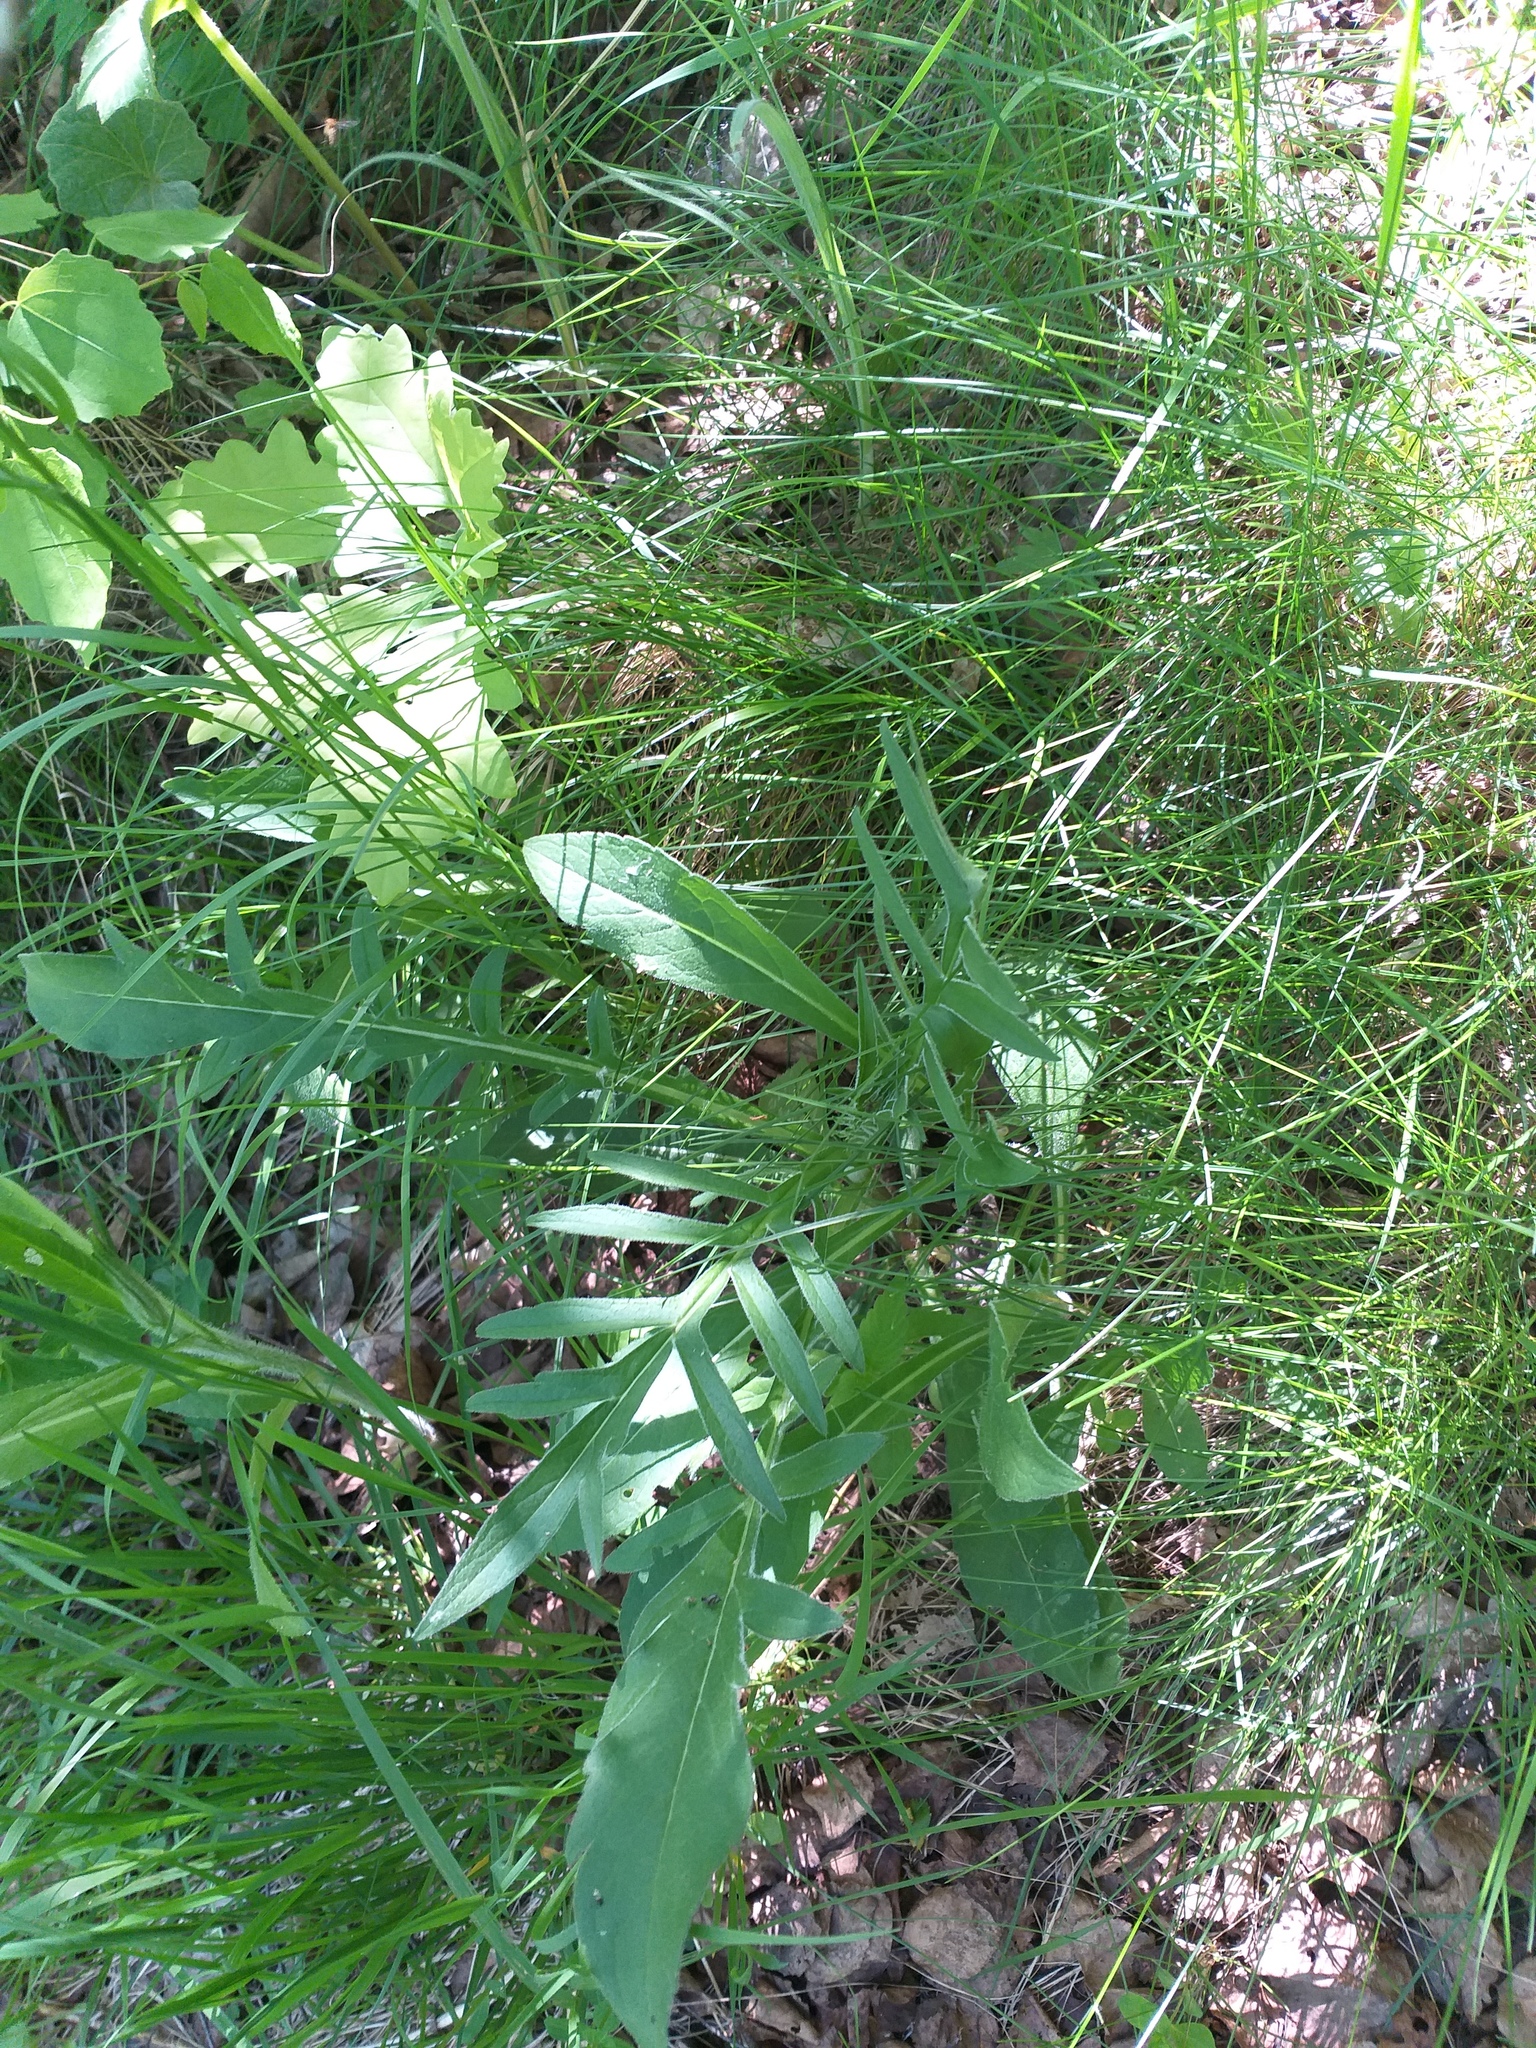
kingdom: Plantae
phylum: Tracheophyta
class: Magnoliopsida
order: Dipsacales
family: Caprifoliaceae
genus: Knautia
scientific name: Knautia arvensis
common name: Field scabiosa
